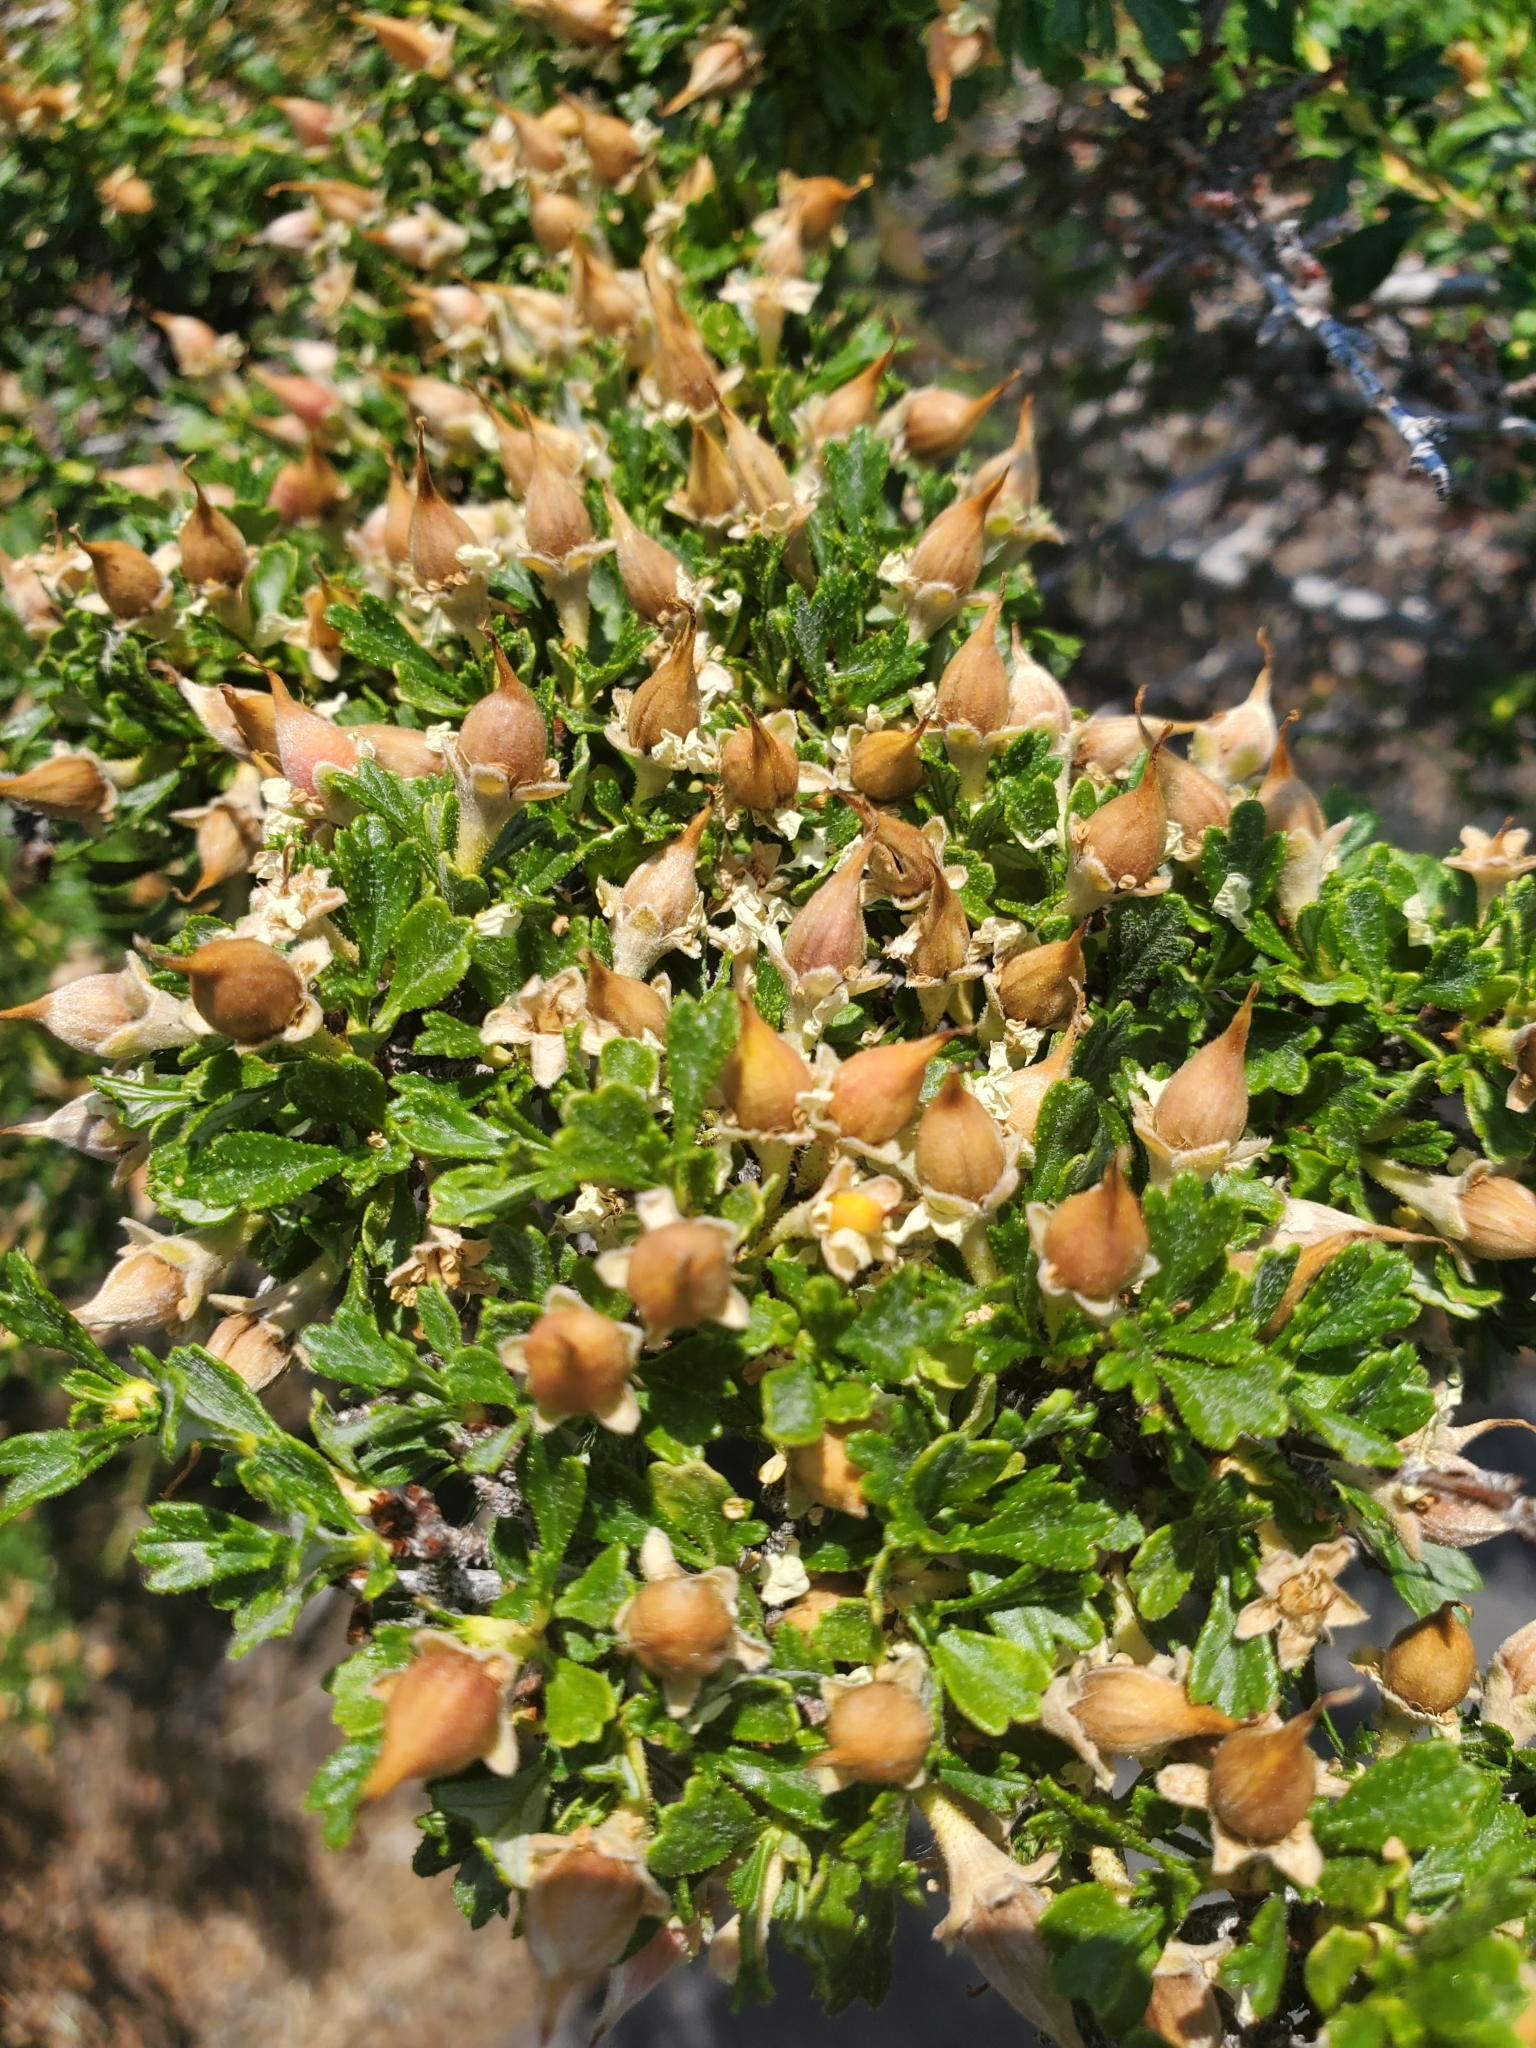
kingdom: Plantae
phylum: Tracheophyta
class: Magnoliopsida
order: Rosales
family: Rosaceae
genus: Purshia
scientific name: Purshia tridentata
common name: Antelope bitterbrush
